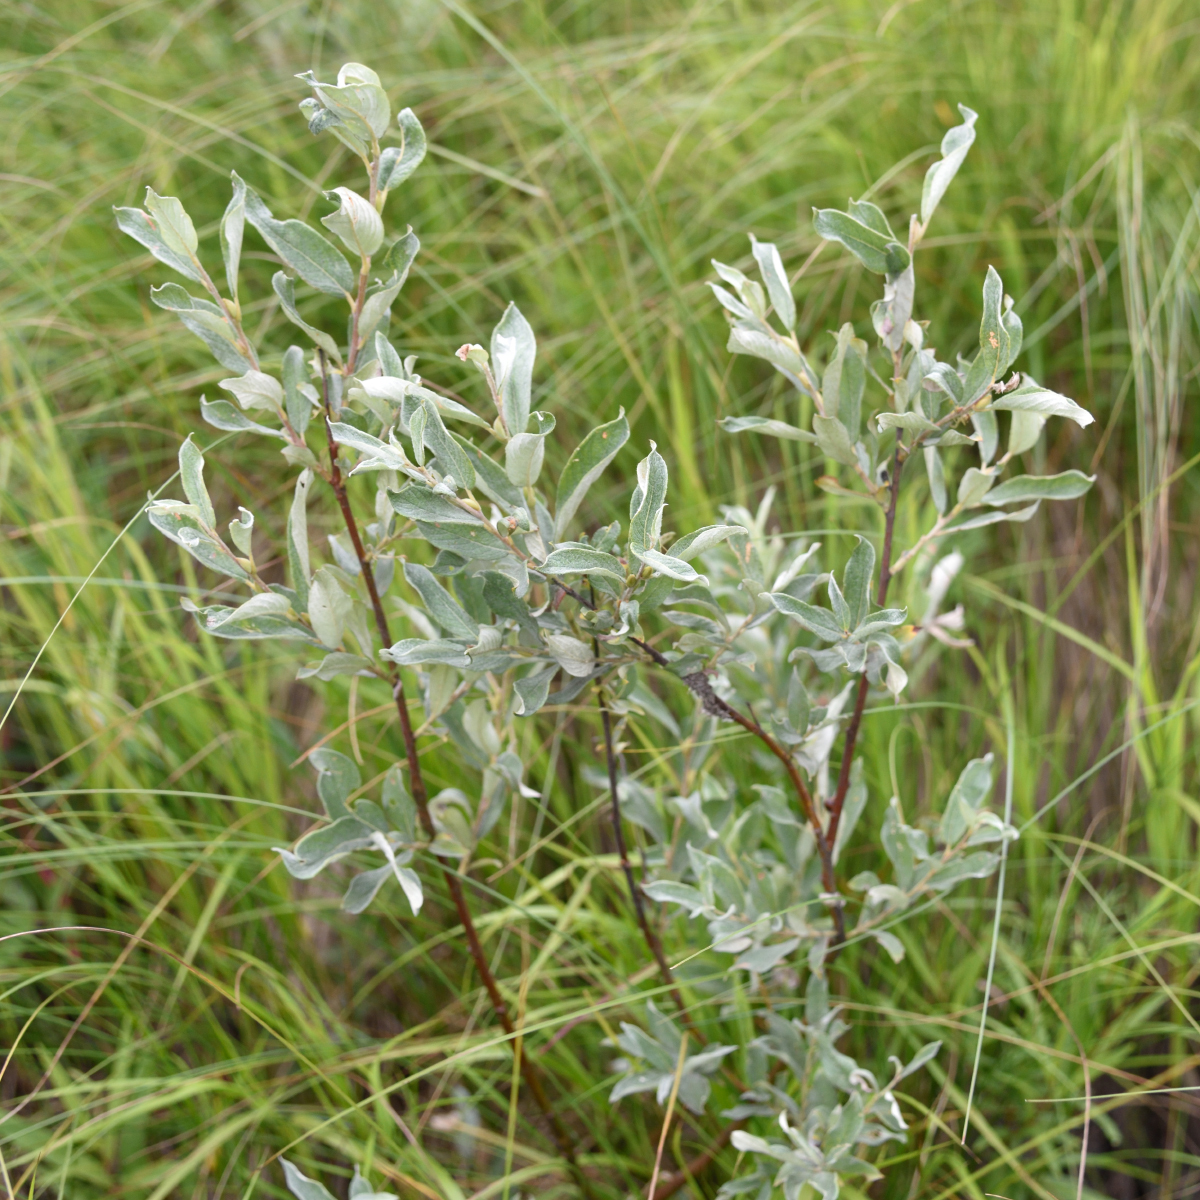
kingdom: Plantae
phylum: Tracheophyta
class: Magnoliopsida
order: Malpighiales
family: Salicaceae
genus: Salix
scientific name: Salix lapponum
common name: Downy willow
